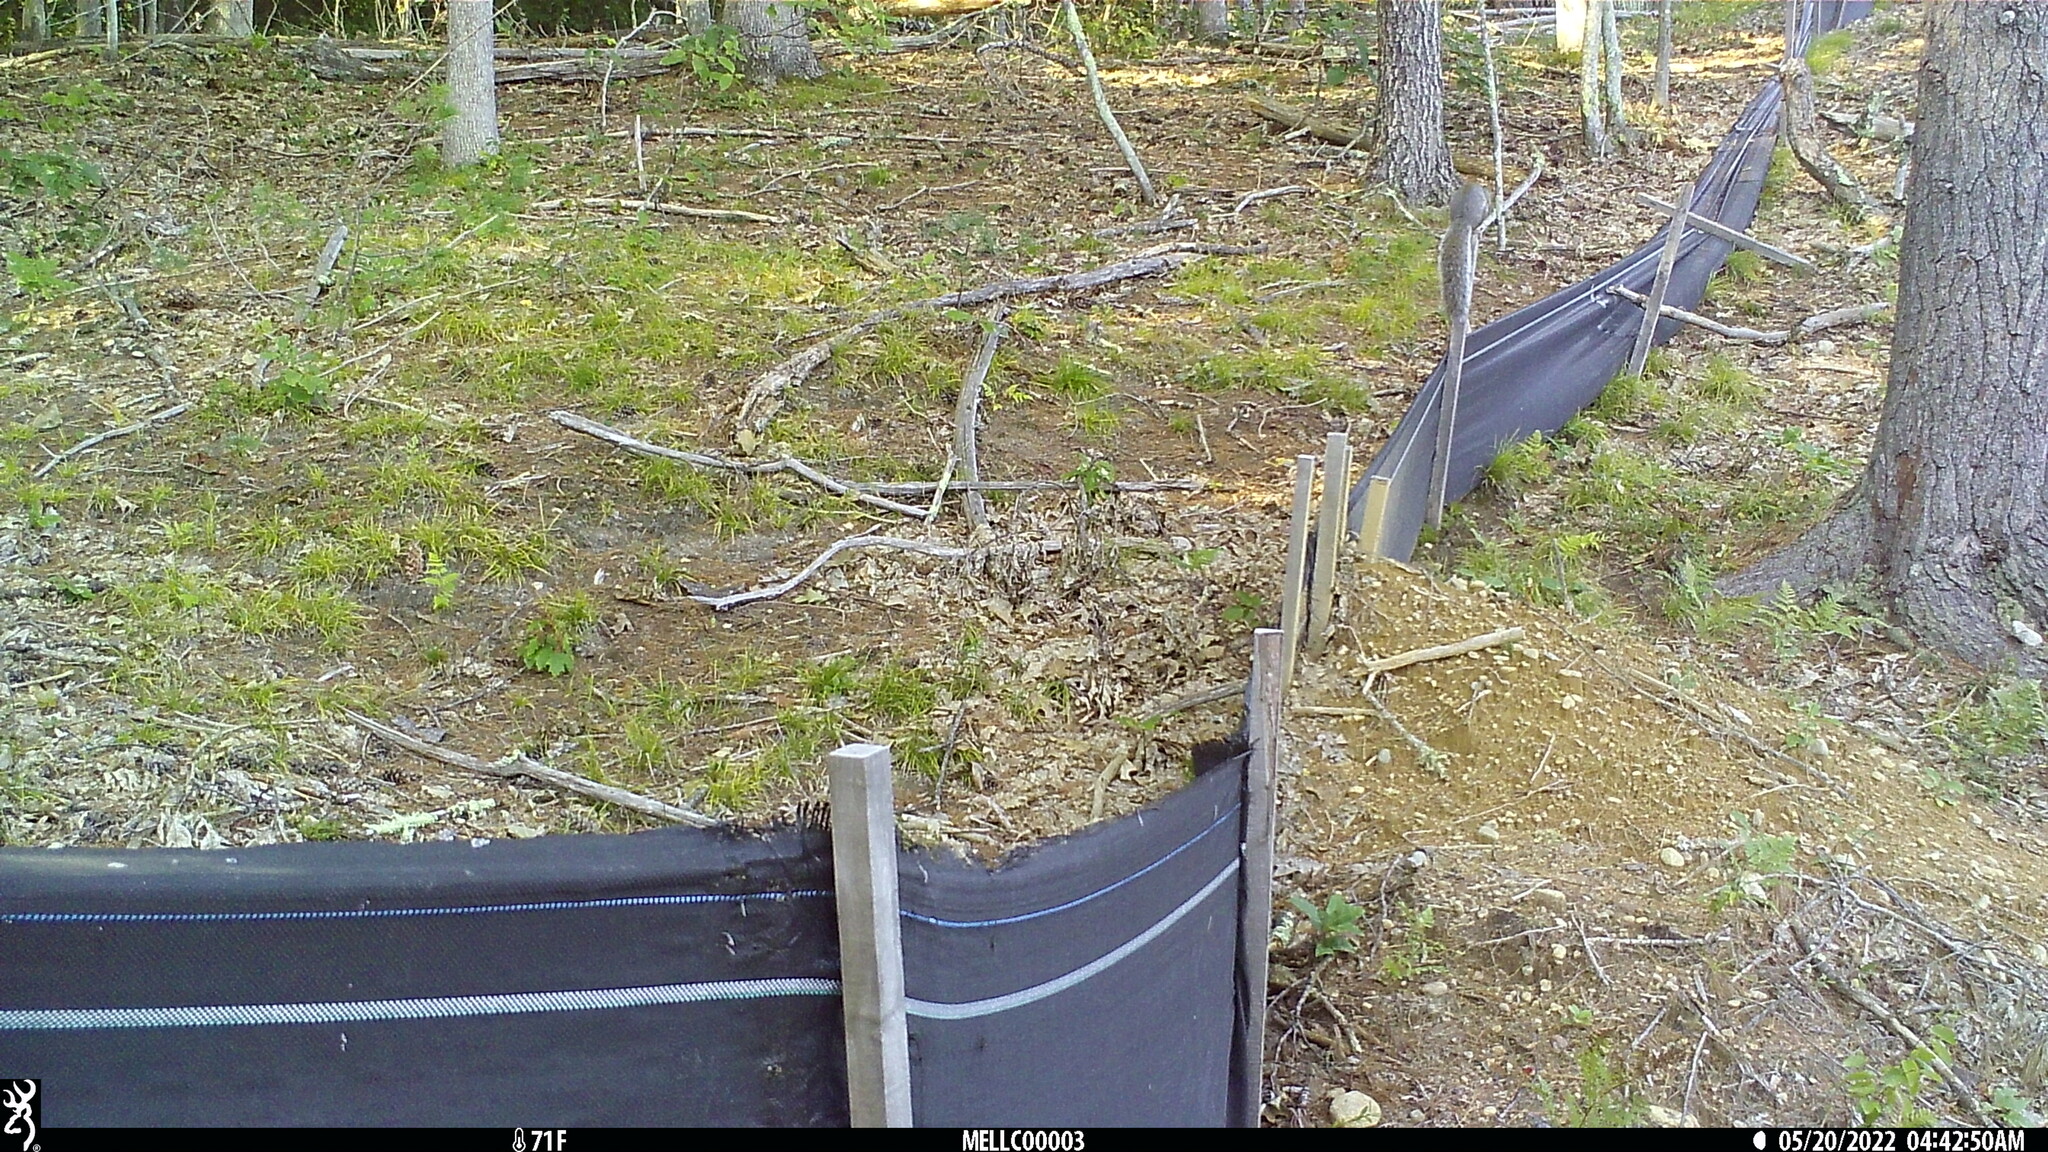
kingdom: Animalia
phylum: Chordata
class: Mammalia
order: Rodentia
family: Sciuridae
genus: Sciurus
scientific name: Sciurus carolinensis
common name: Eastern gray squirrel
